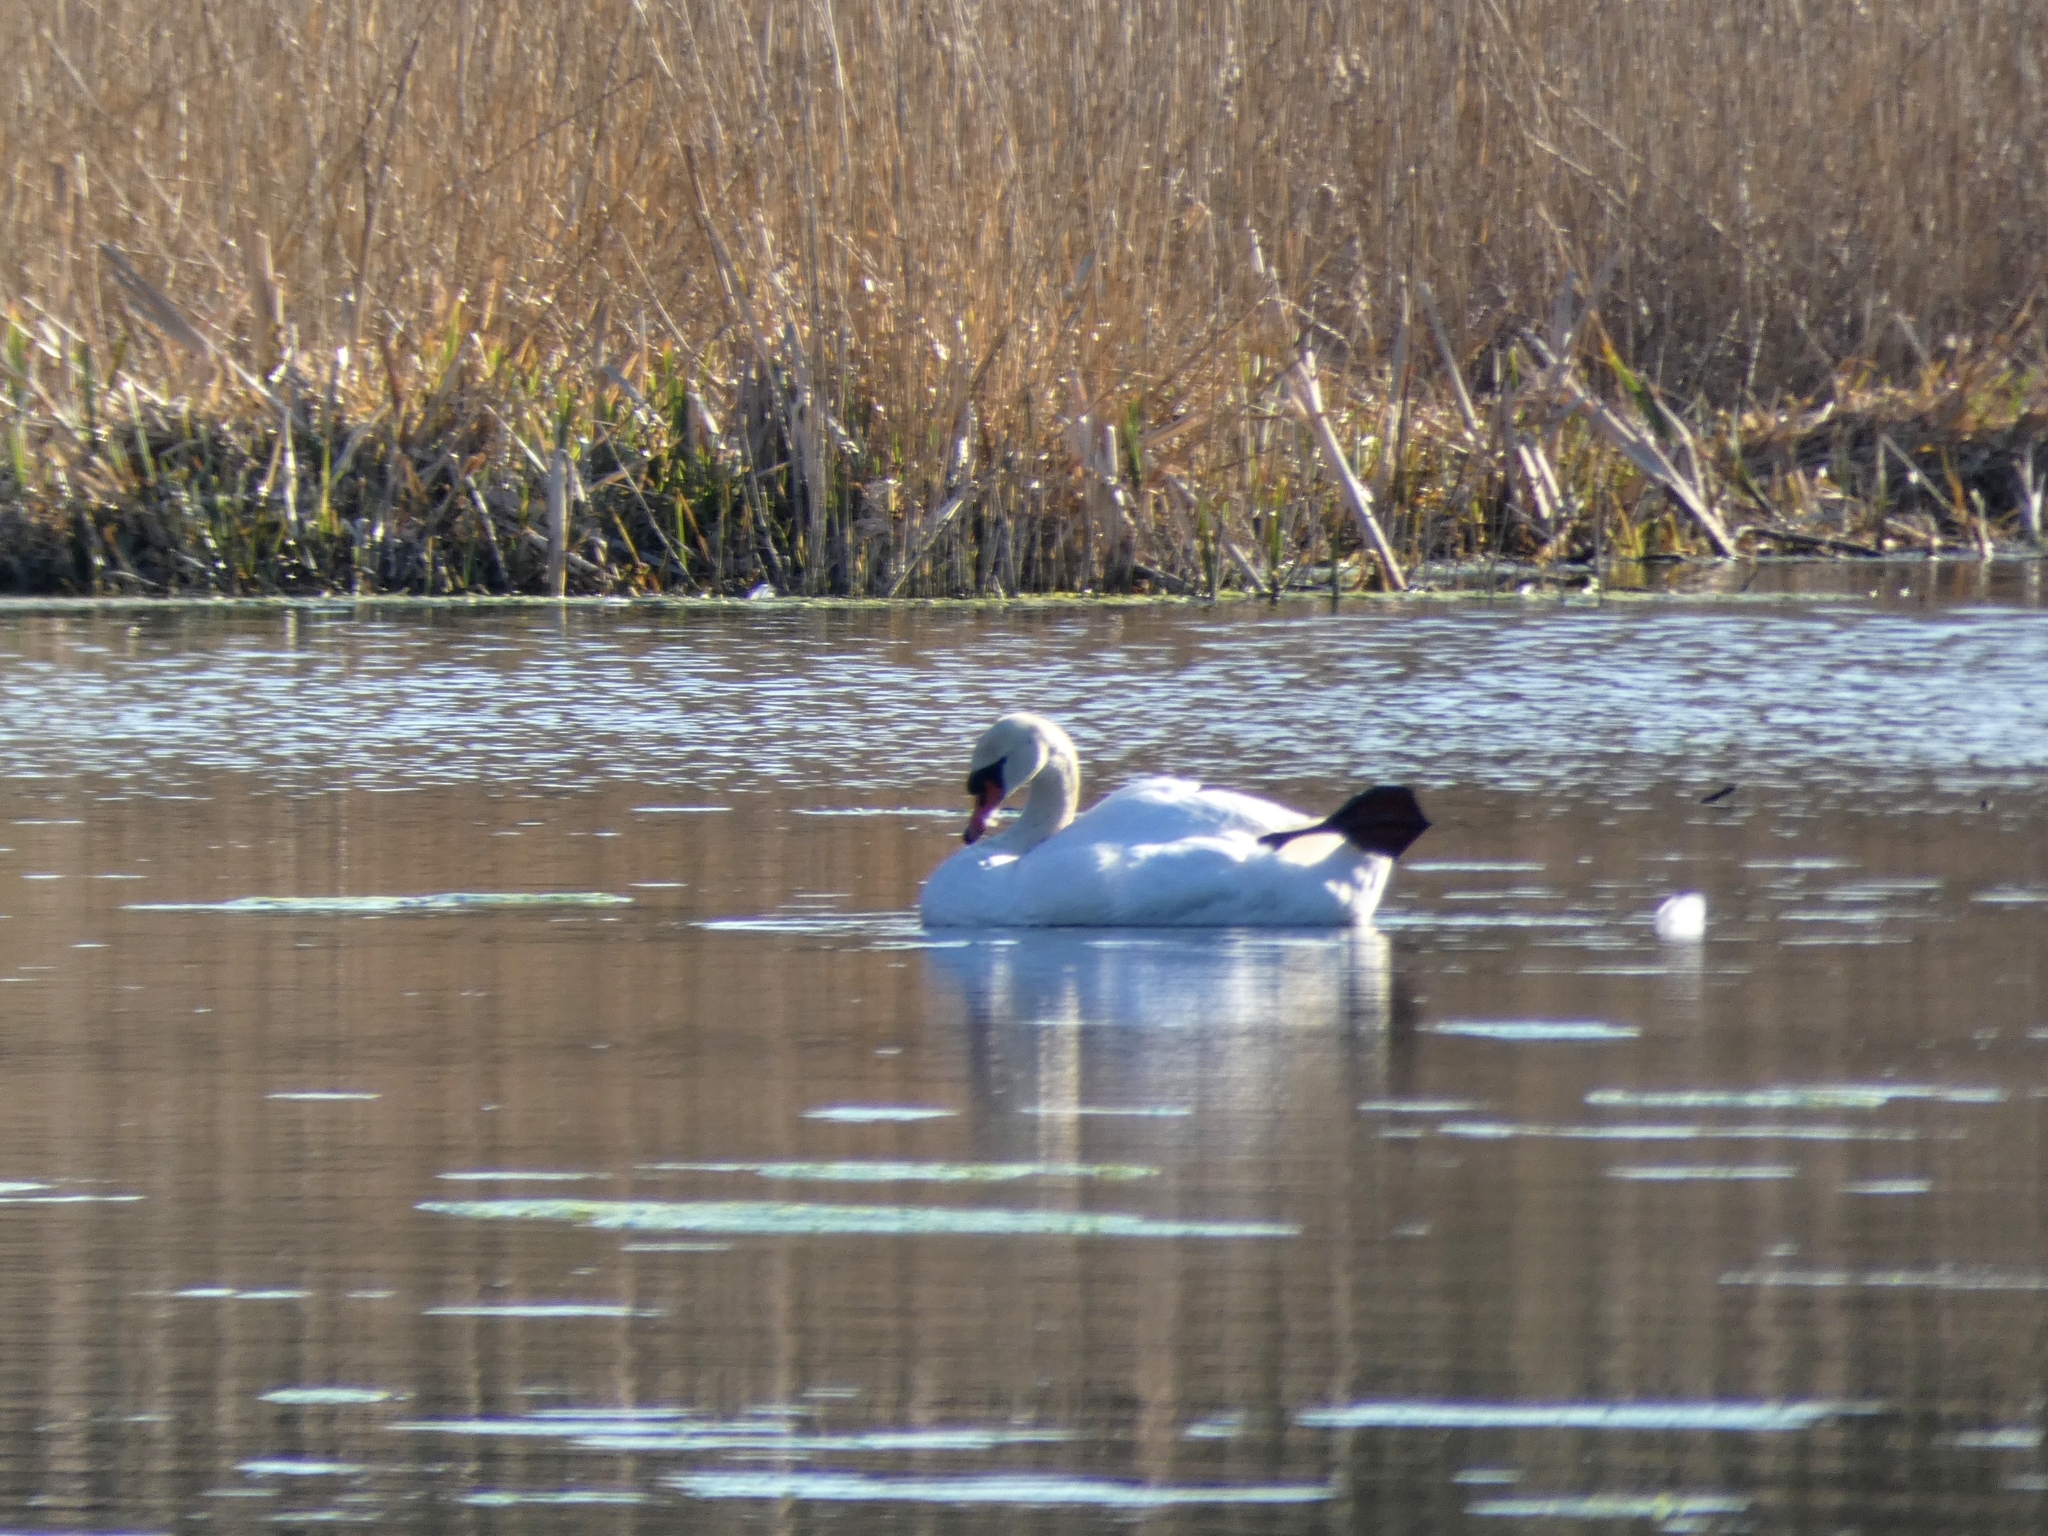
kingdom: Animalia
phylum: Chordata
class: Aves
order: Anseriformes
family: Anatidae
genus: Cygnus
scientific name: Cygnus olor
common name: Mute swan
